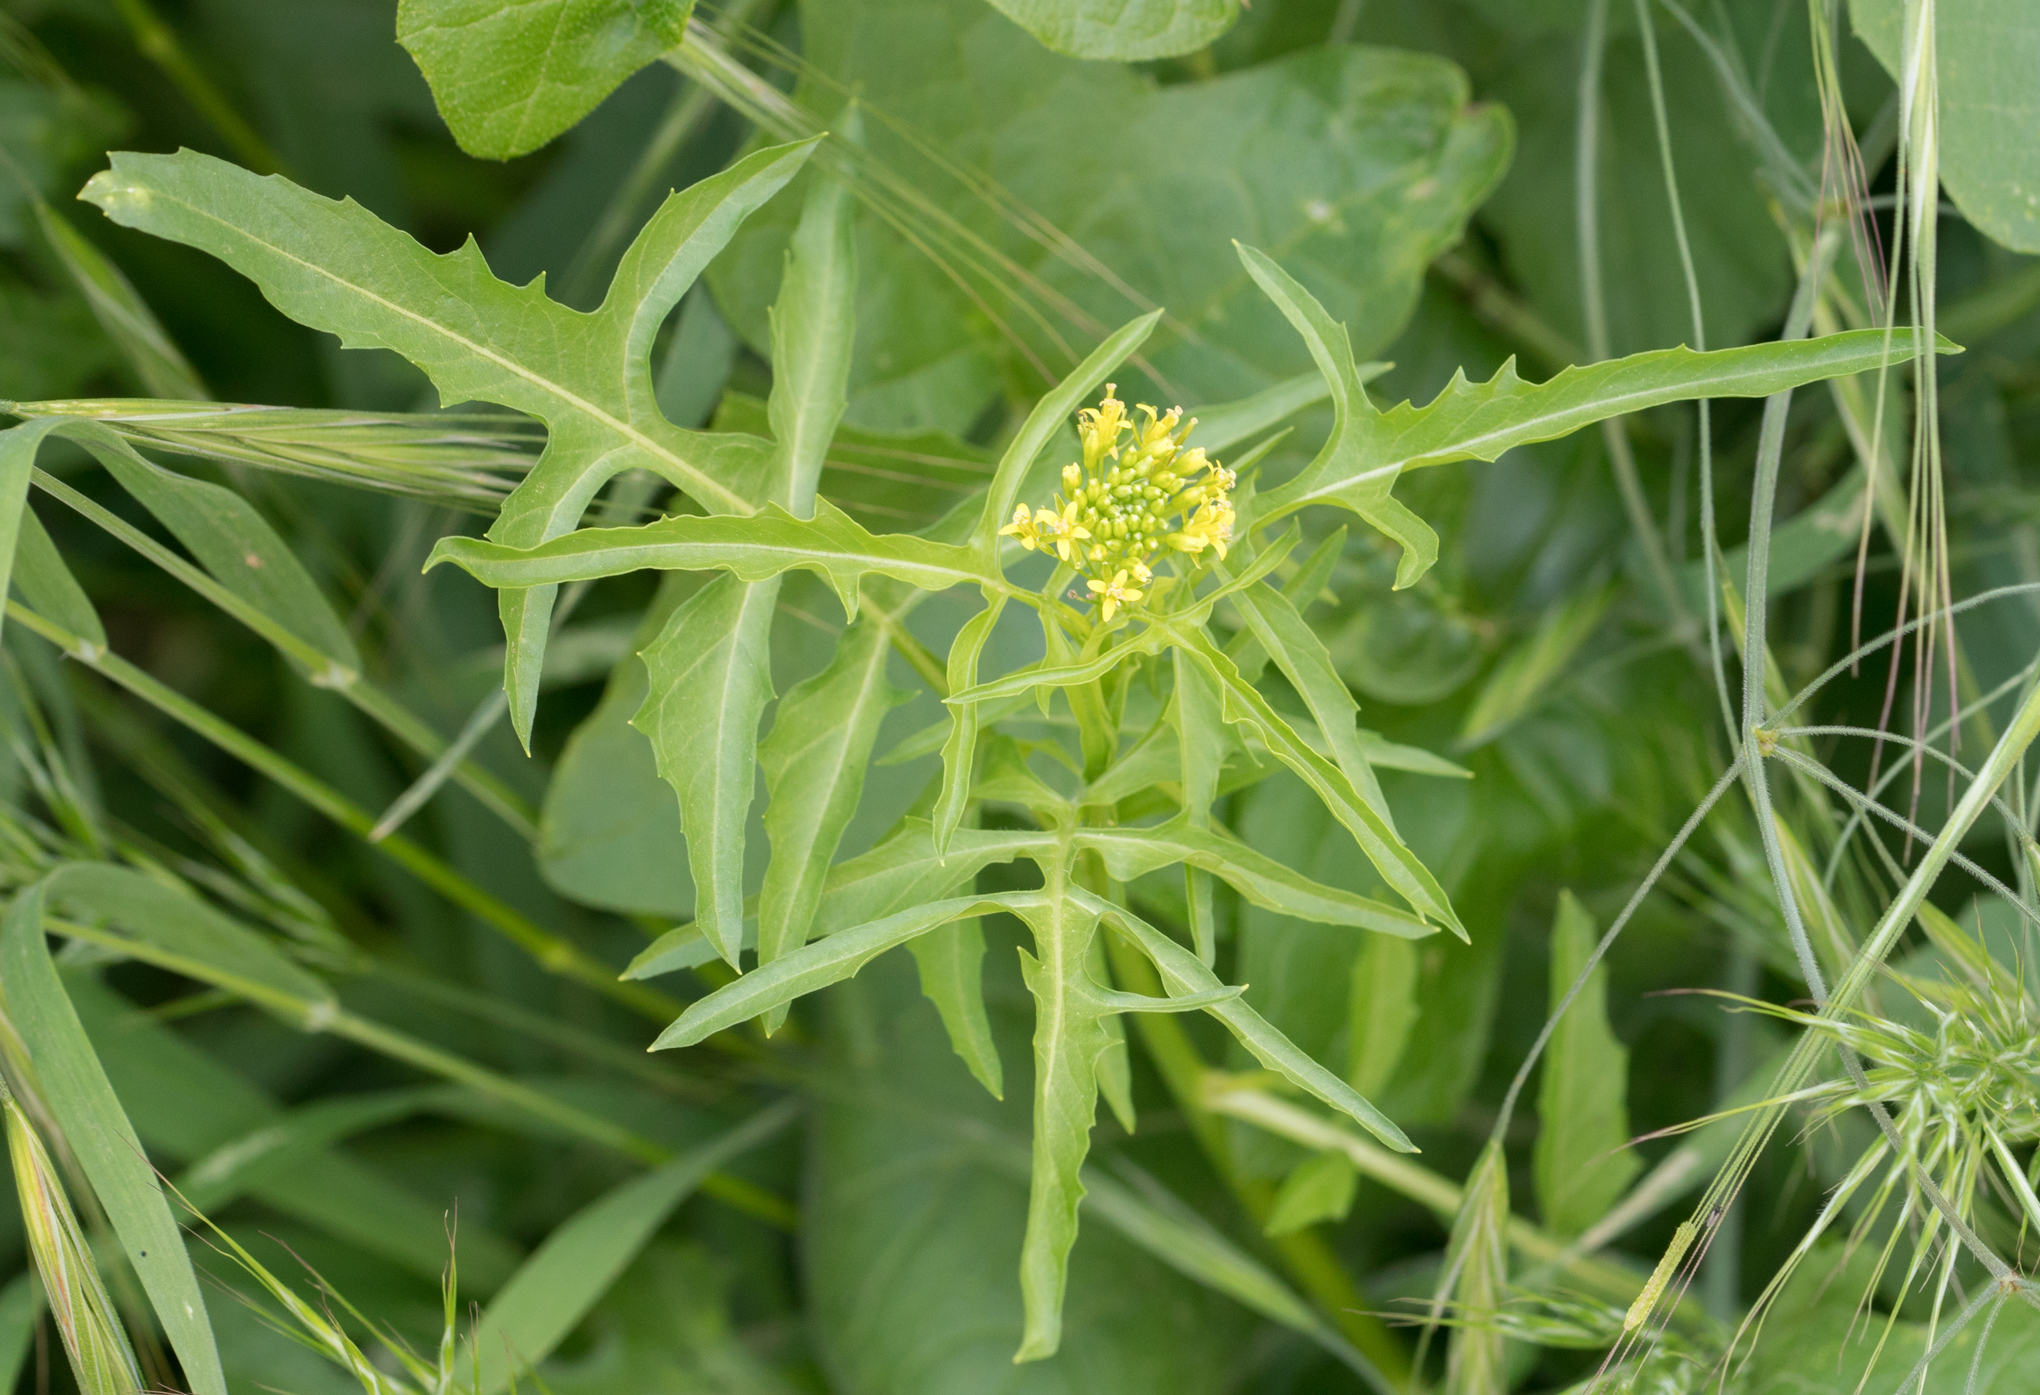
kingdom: Plantae
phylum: Tracheophyta
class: Magnoliopsida
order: Brassicales
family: Brassicaceae
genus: Sisymbrium
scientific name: Sisymbrium irio
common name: London rocket
